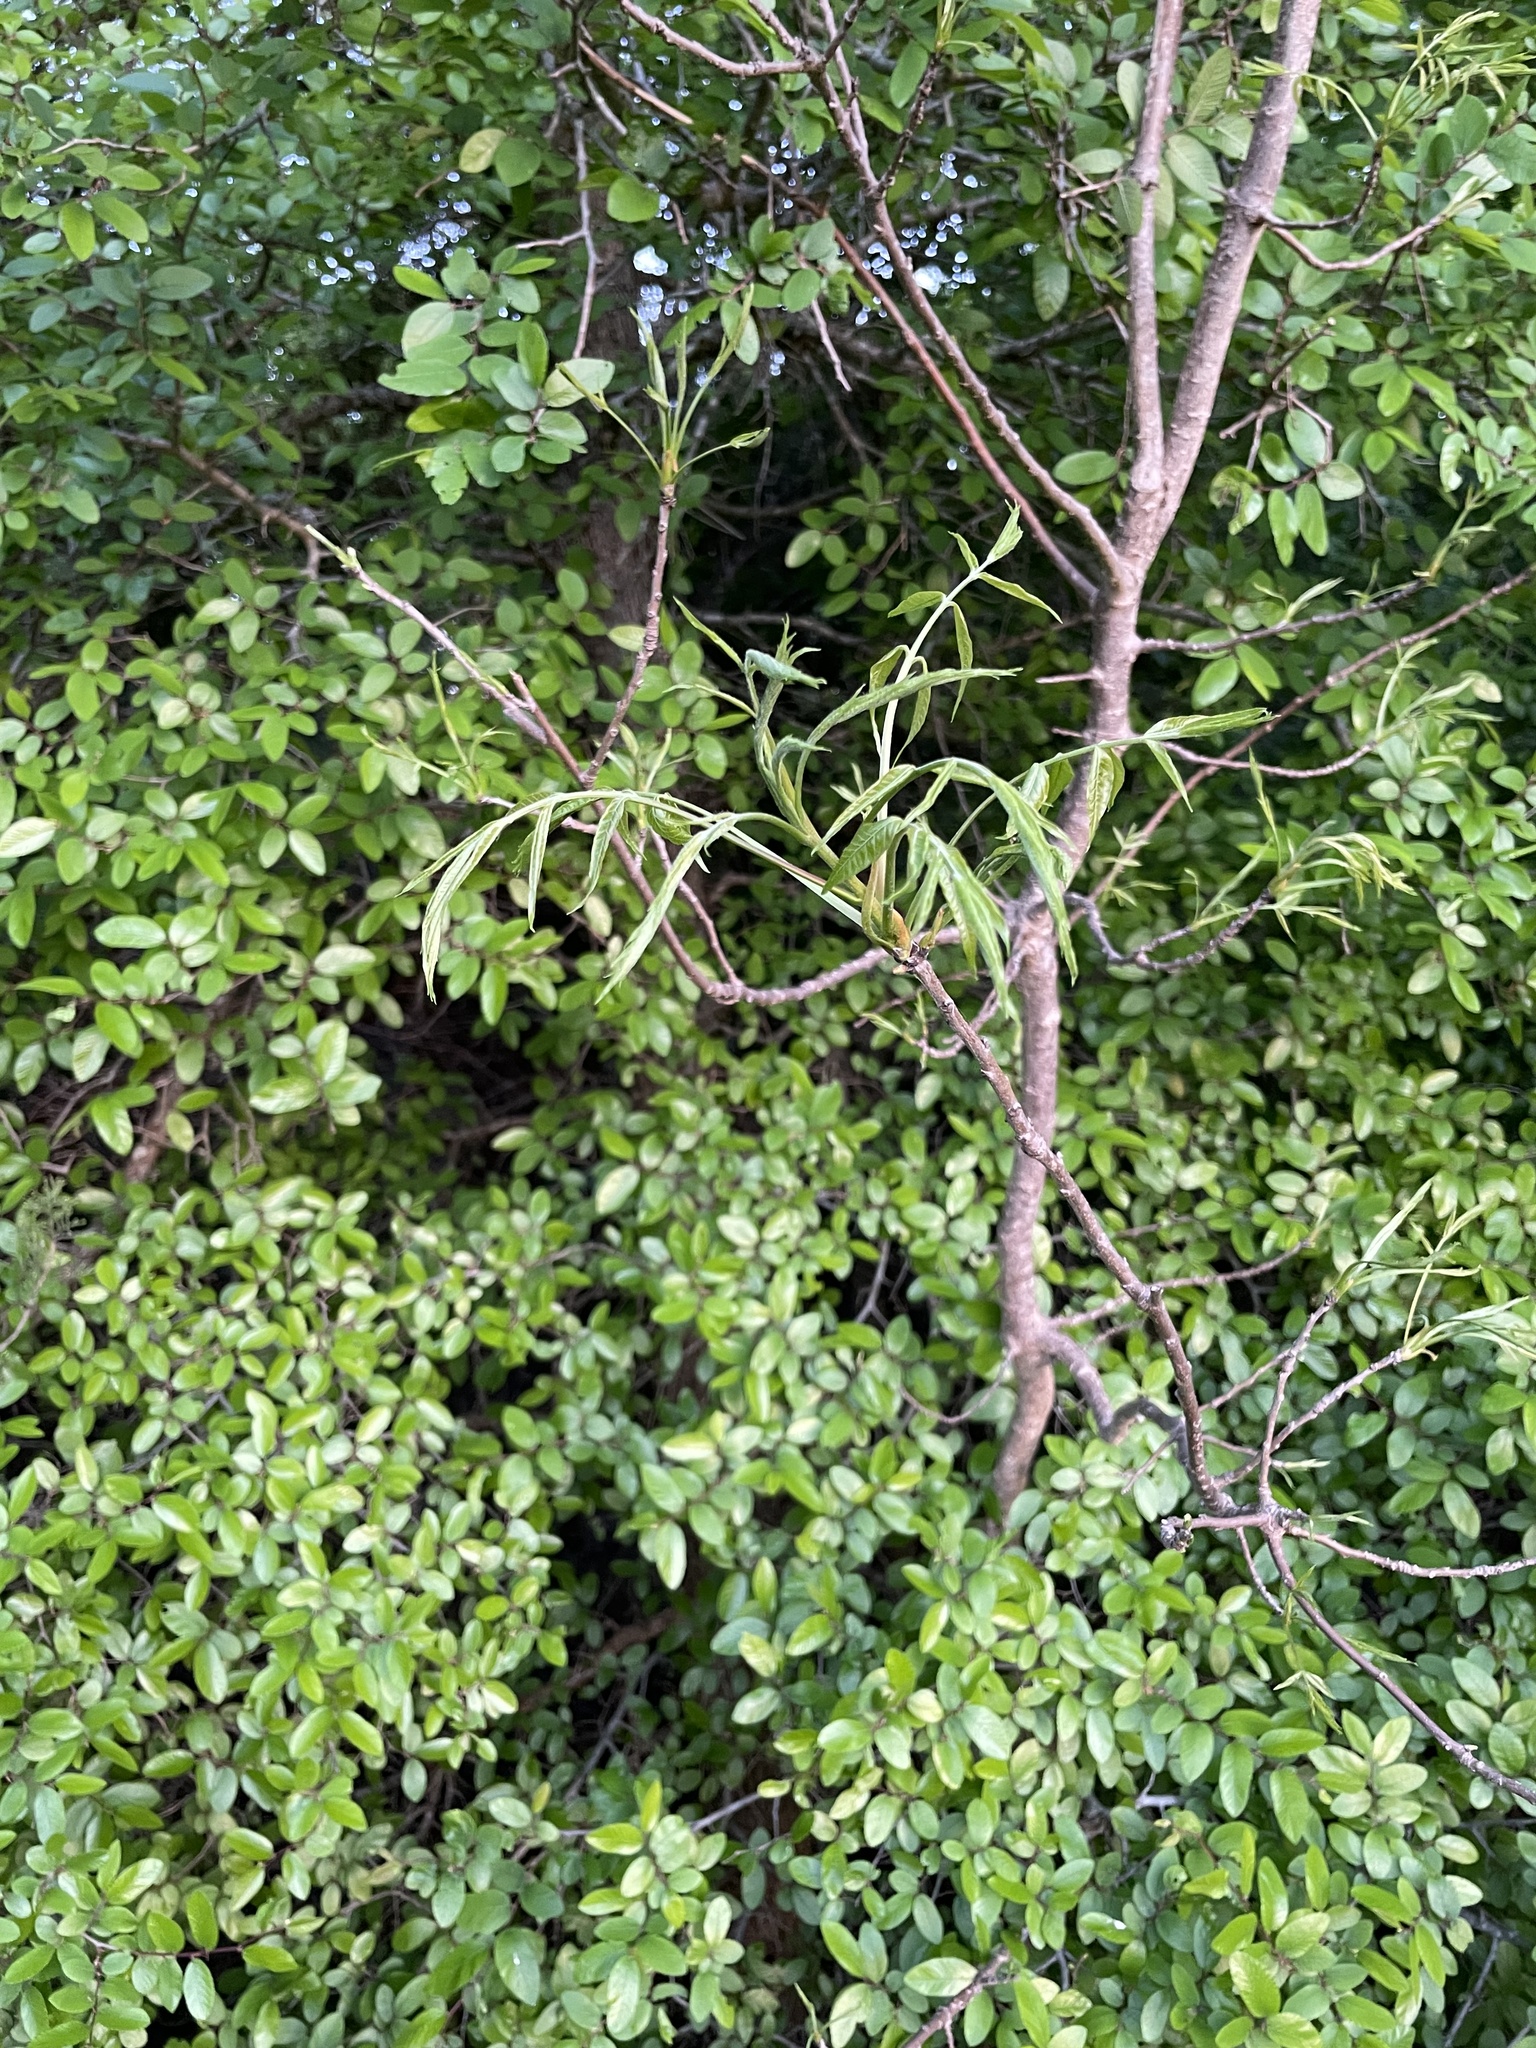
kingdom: Plantae
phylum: Tracheophyta
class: Magnoliopsida
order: Sapindales
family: Anacardiaceae
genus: Pistacia
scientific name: Pistacia chinensis
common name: Chinese pistache
